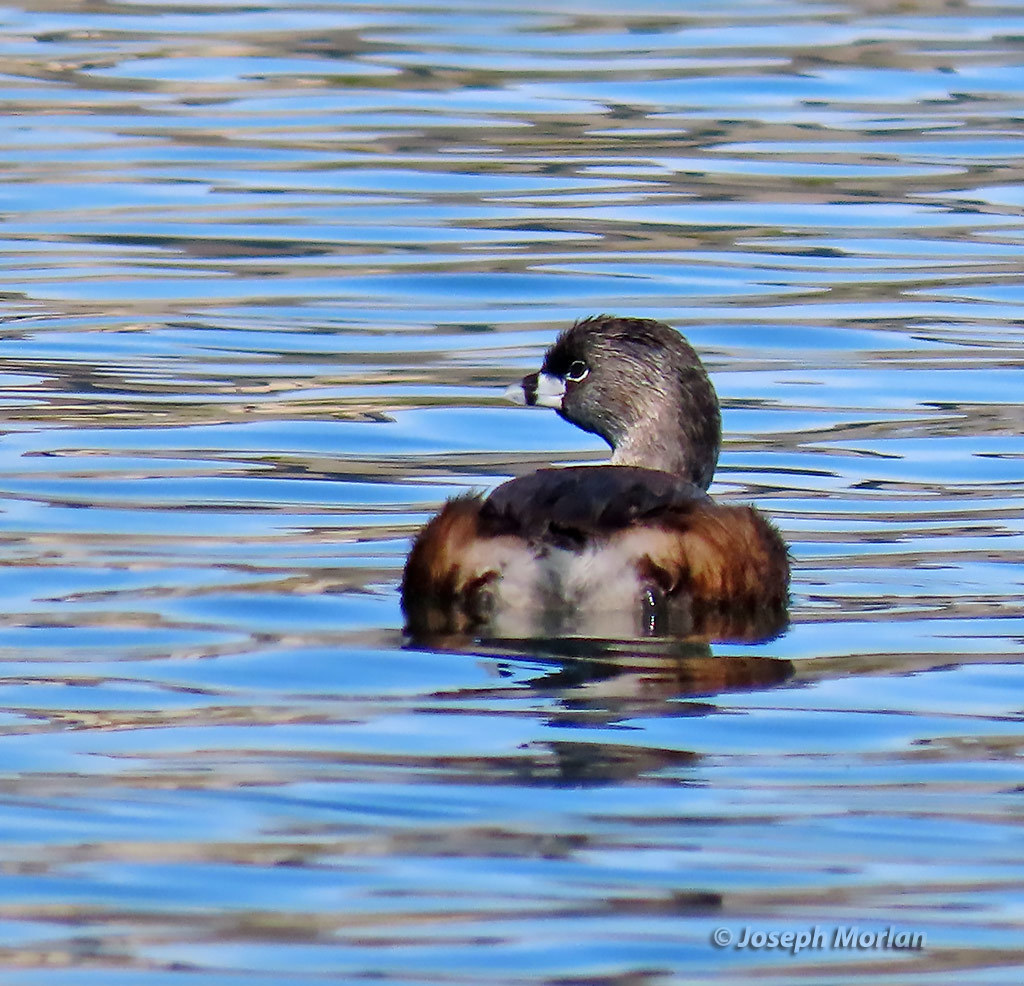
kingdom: Animalia
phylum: Chordata
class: Aves
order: Podicipediformes
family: Podicipedidae
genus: Podilymbus
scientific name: Podilymbus podiceps
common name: Pied-billed grebe
